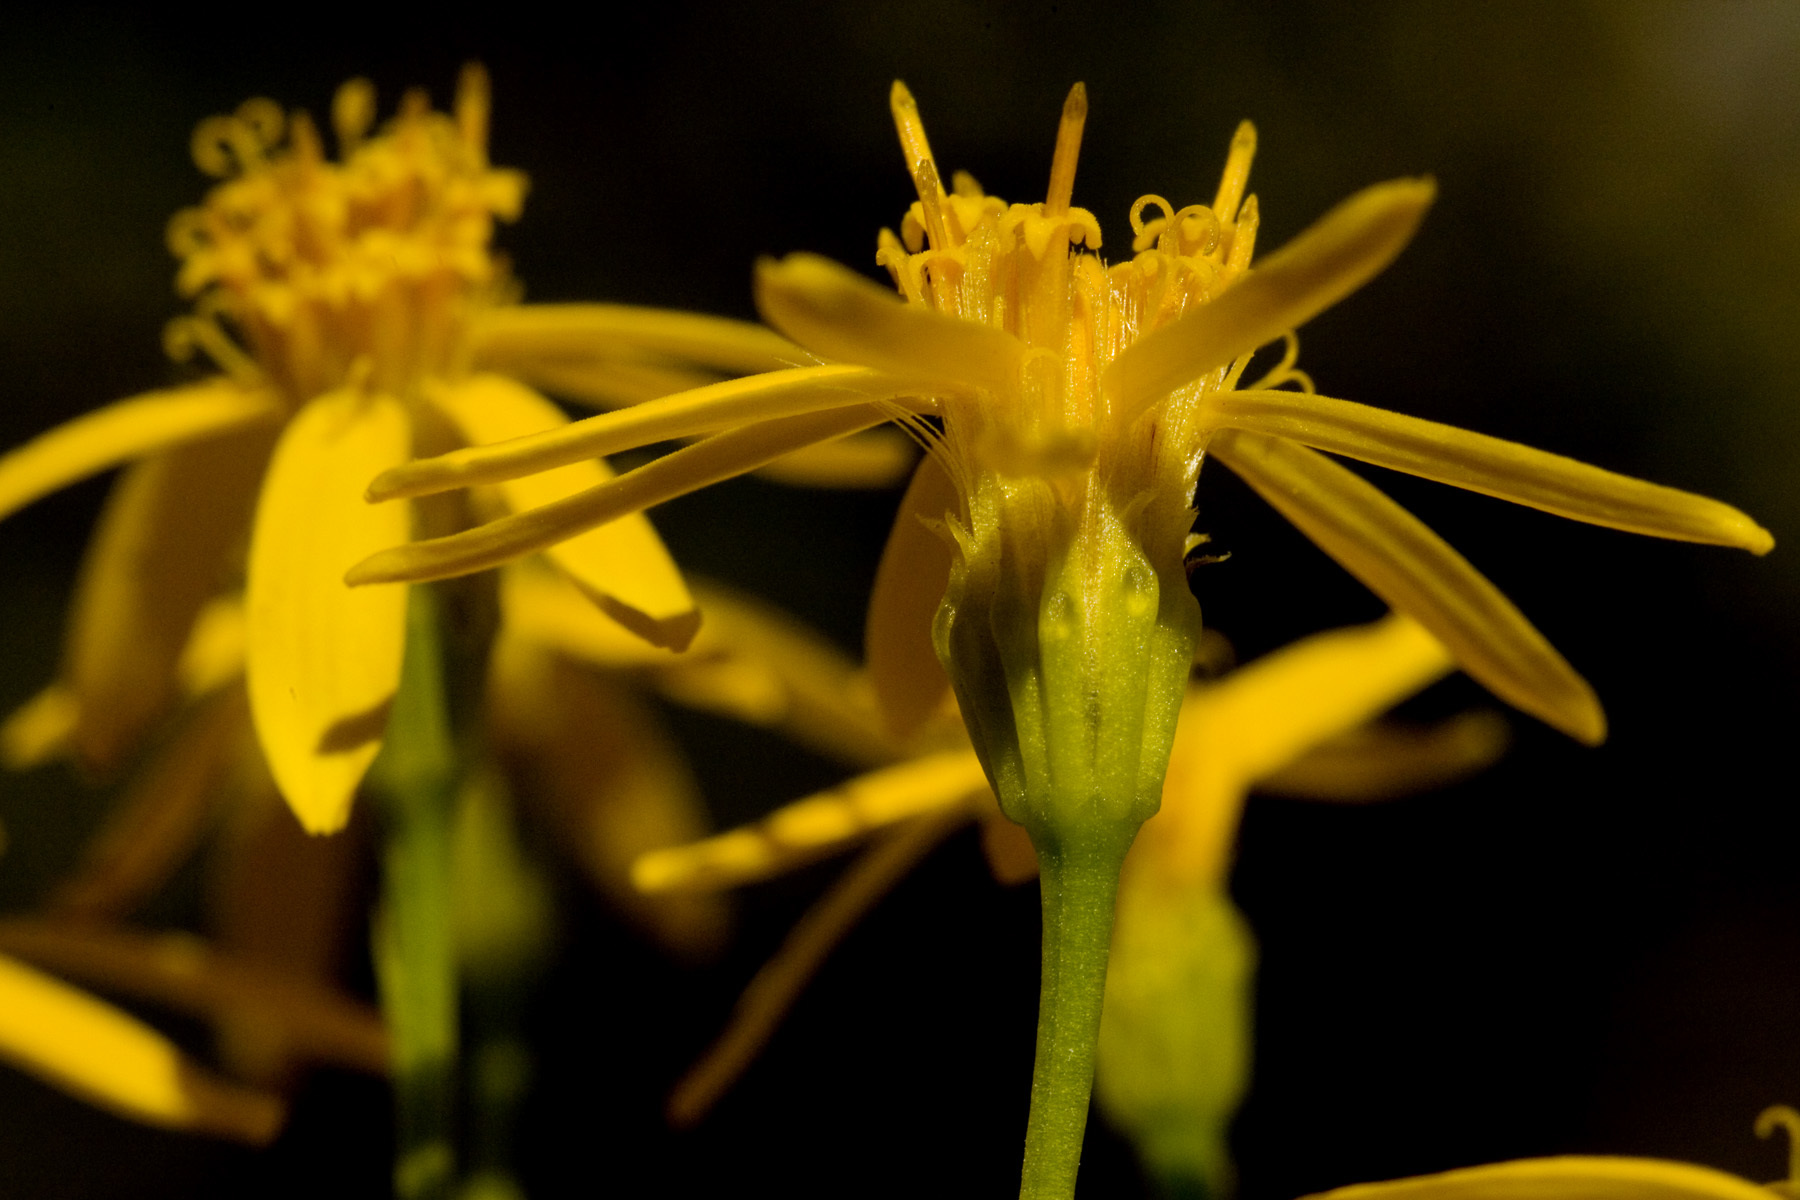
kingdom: Plantae
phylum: Tracheophyta
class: Magnoliopsida
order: Asterales
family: Asteraceae
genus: Chrysactinia
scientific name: Chrysactinia mexicana
